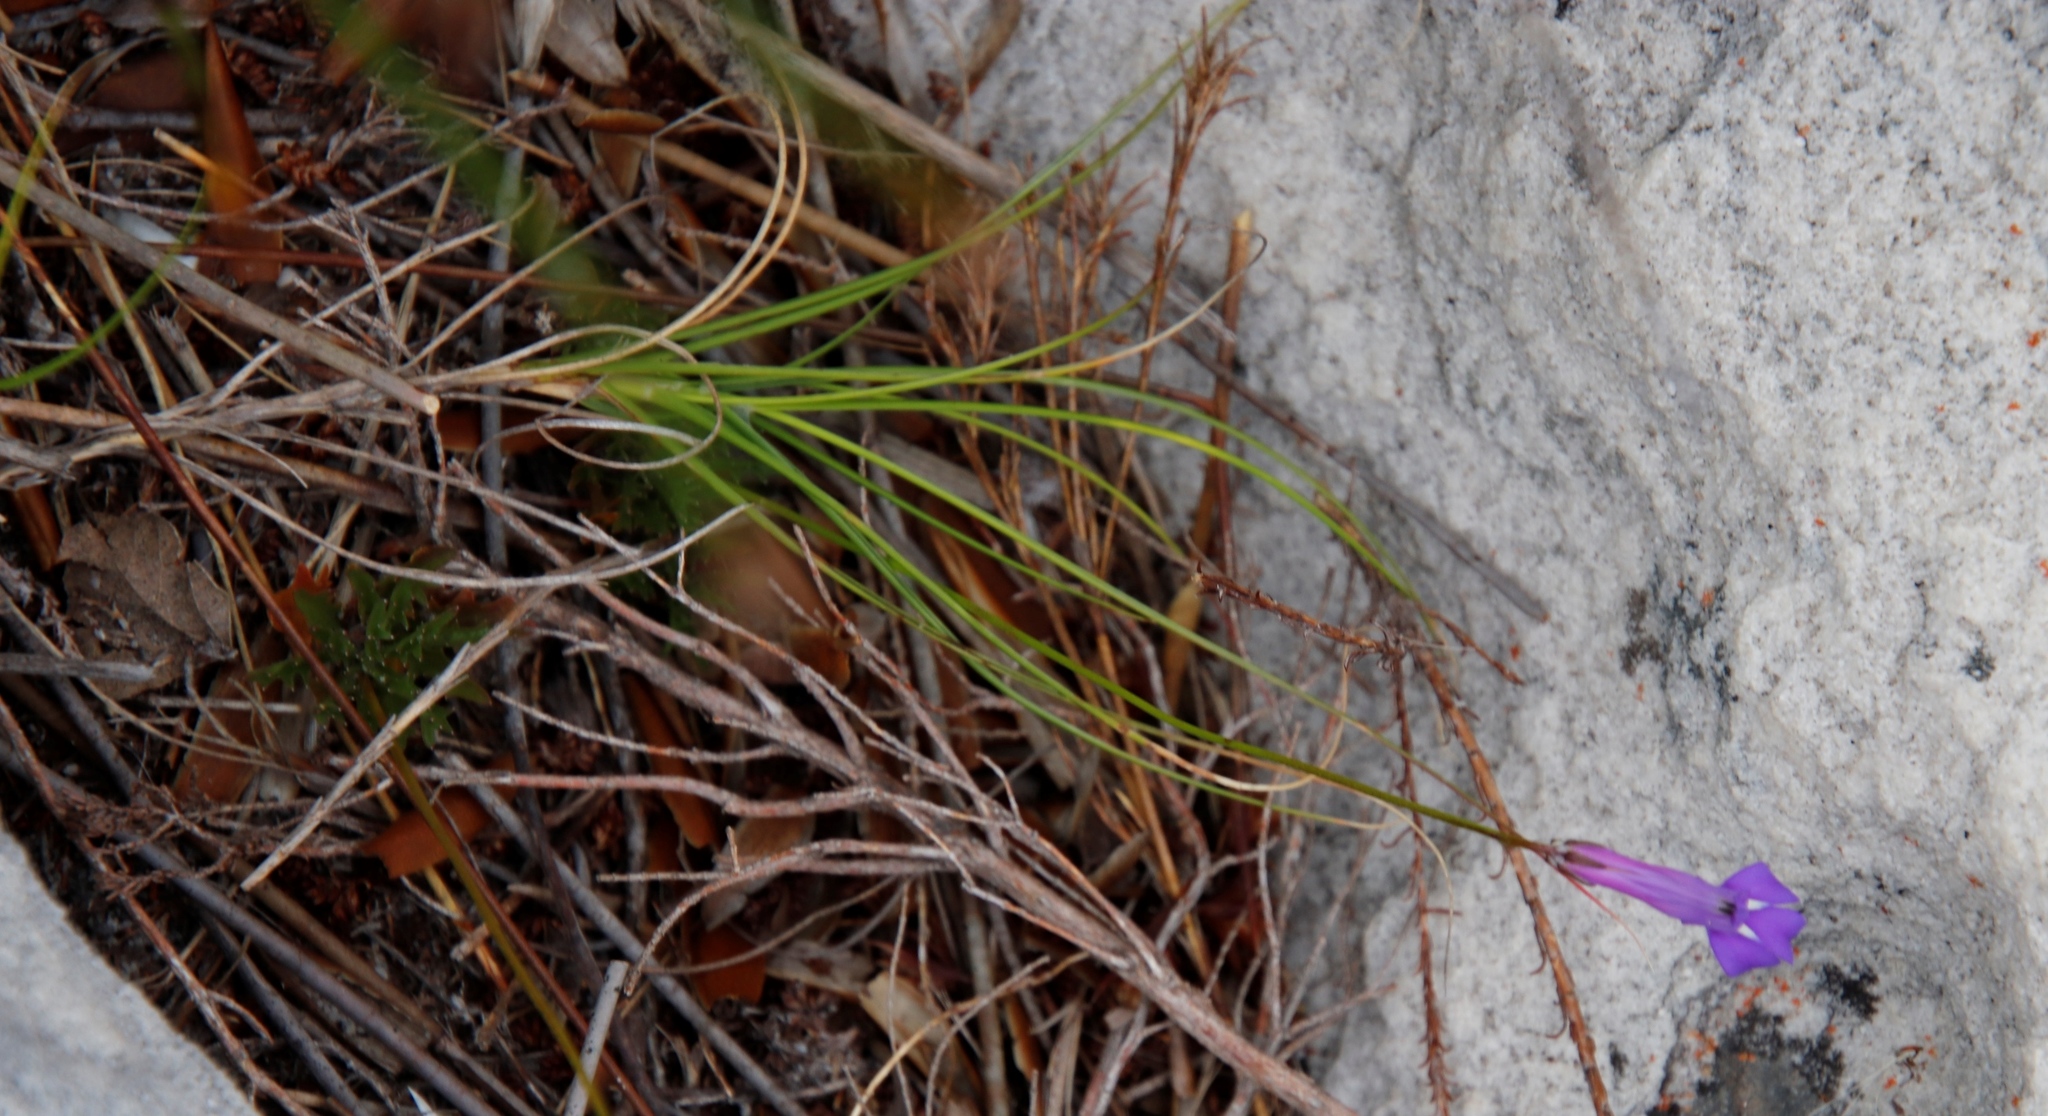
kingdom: Plantae
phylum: Tracheophyta
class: Magnoliopsida
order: Asterales
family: Campanulaceae
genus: Lobelia
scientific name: Lobelia coronopifolia
